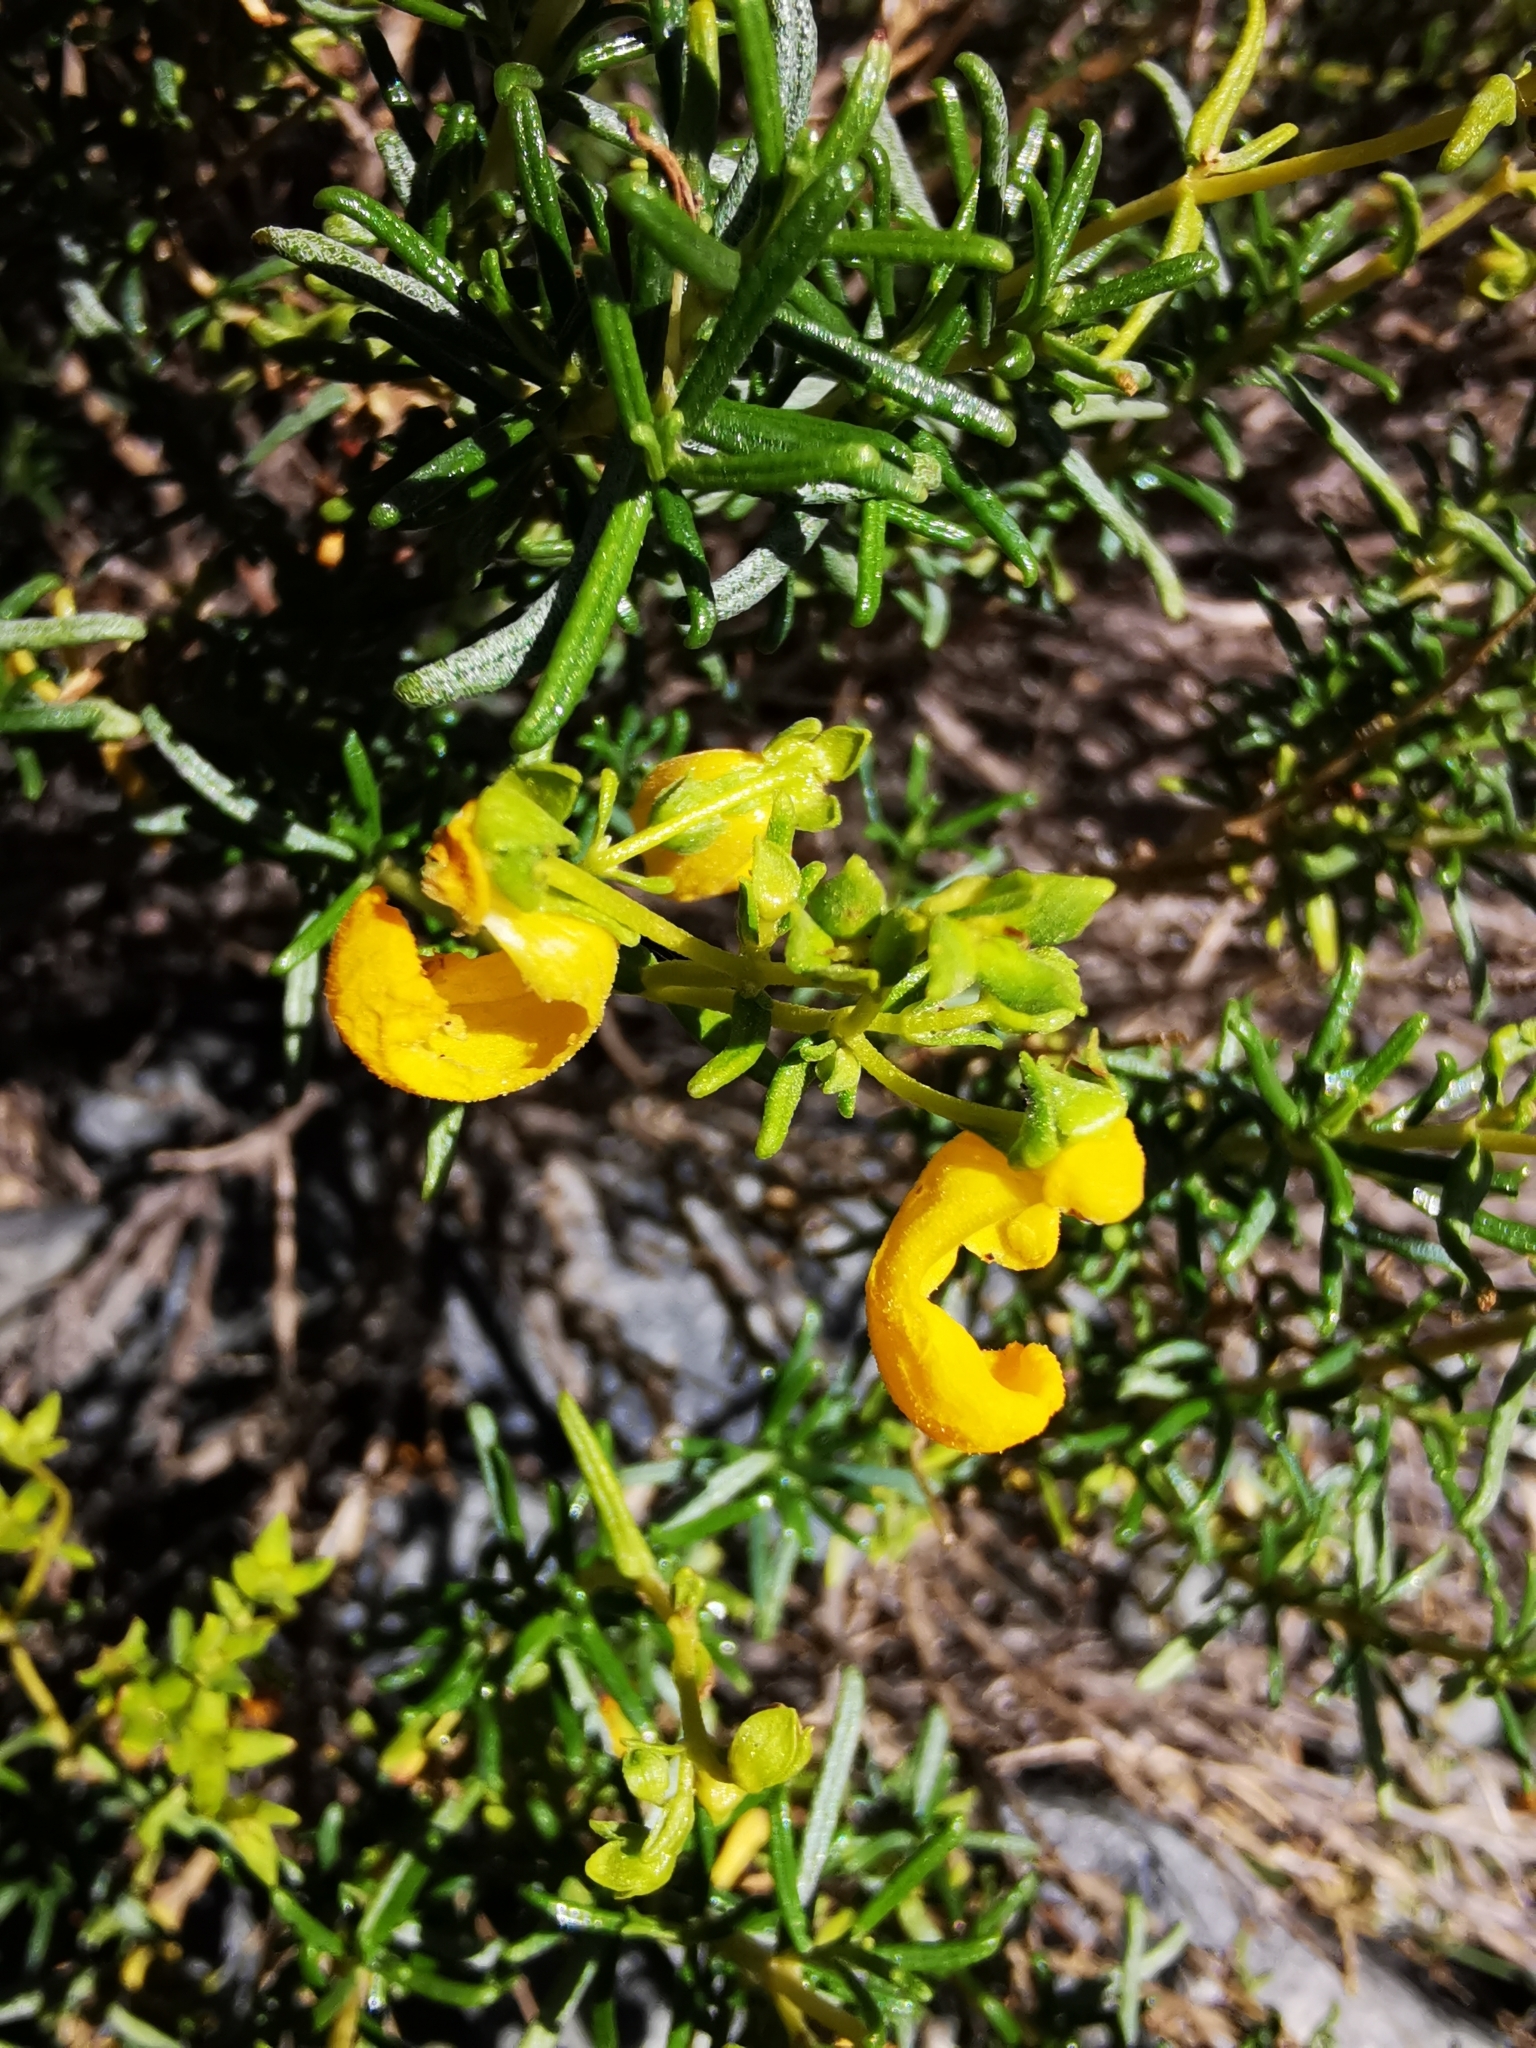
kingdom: Plantae
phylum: Tracheophyta
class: Magnoliopsida
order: Lamiales
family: Calceolariaceae
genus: Calceolaria
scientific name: Calceolaria hypericina
